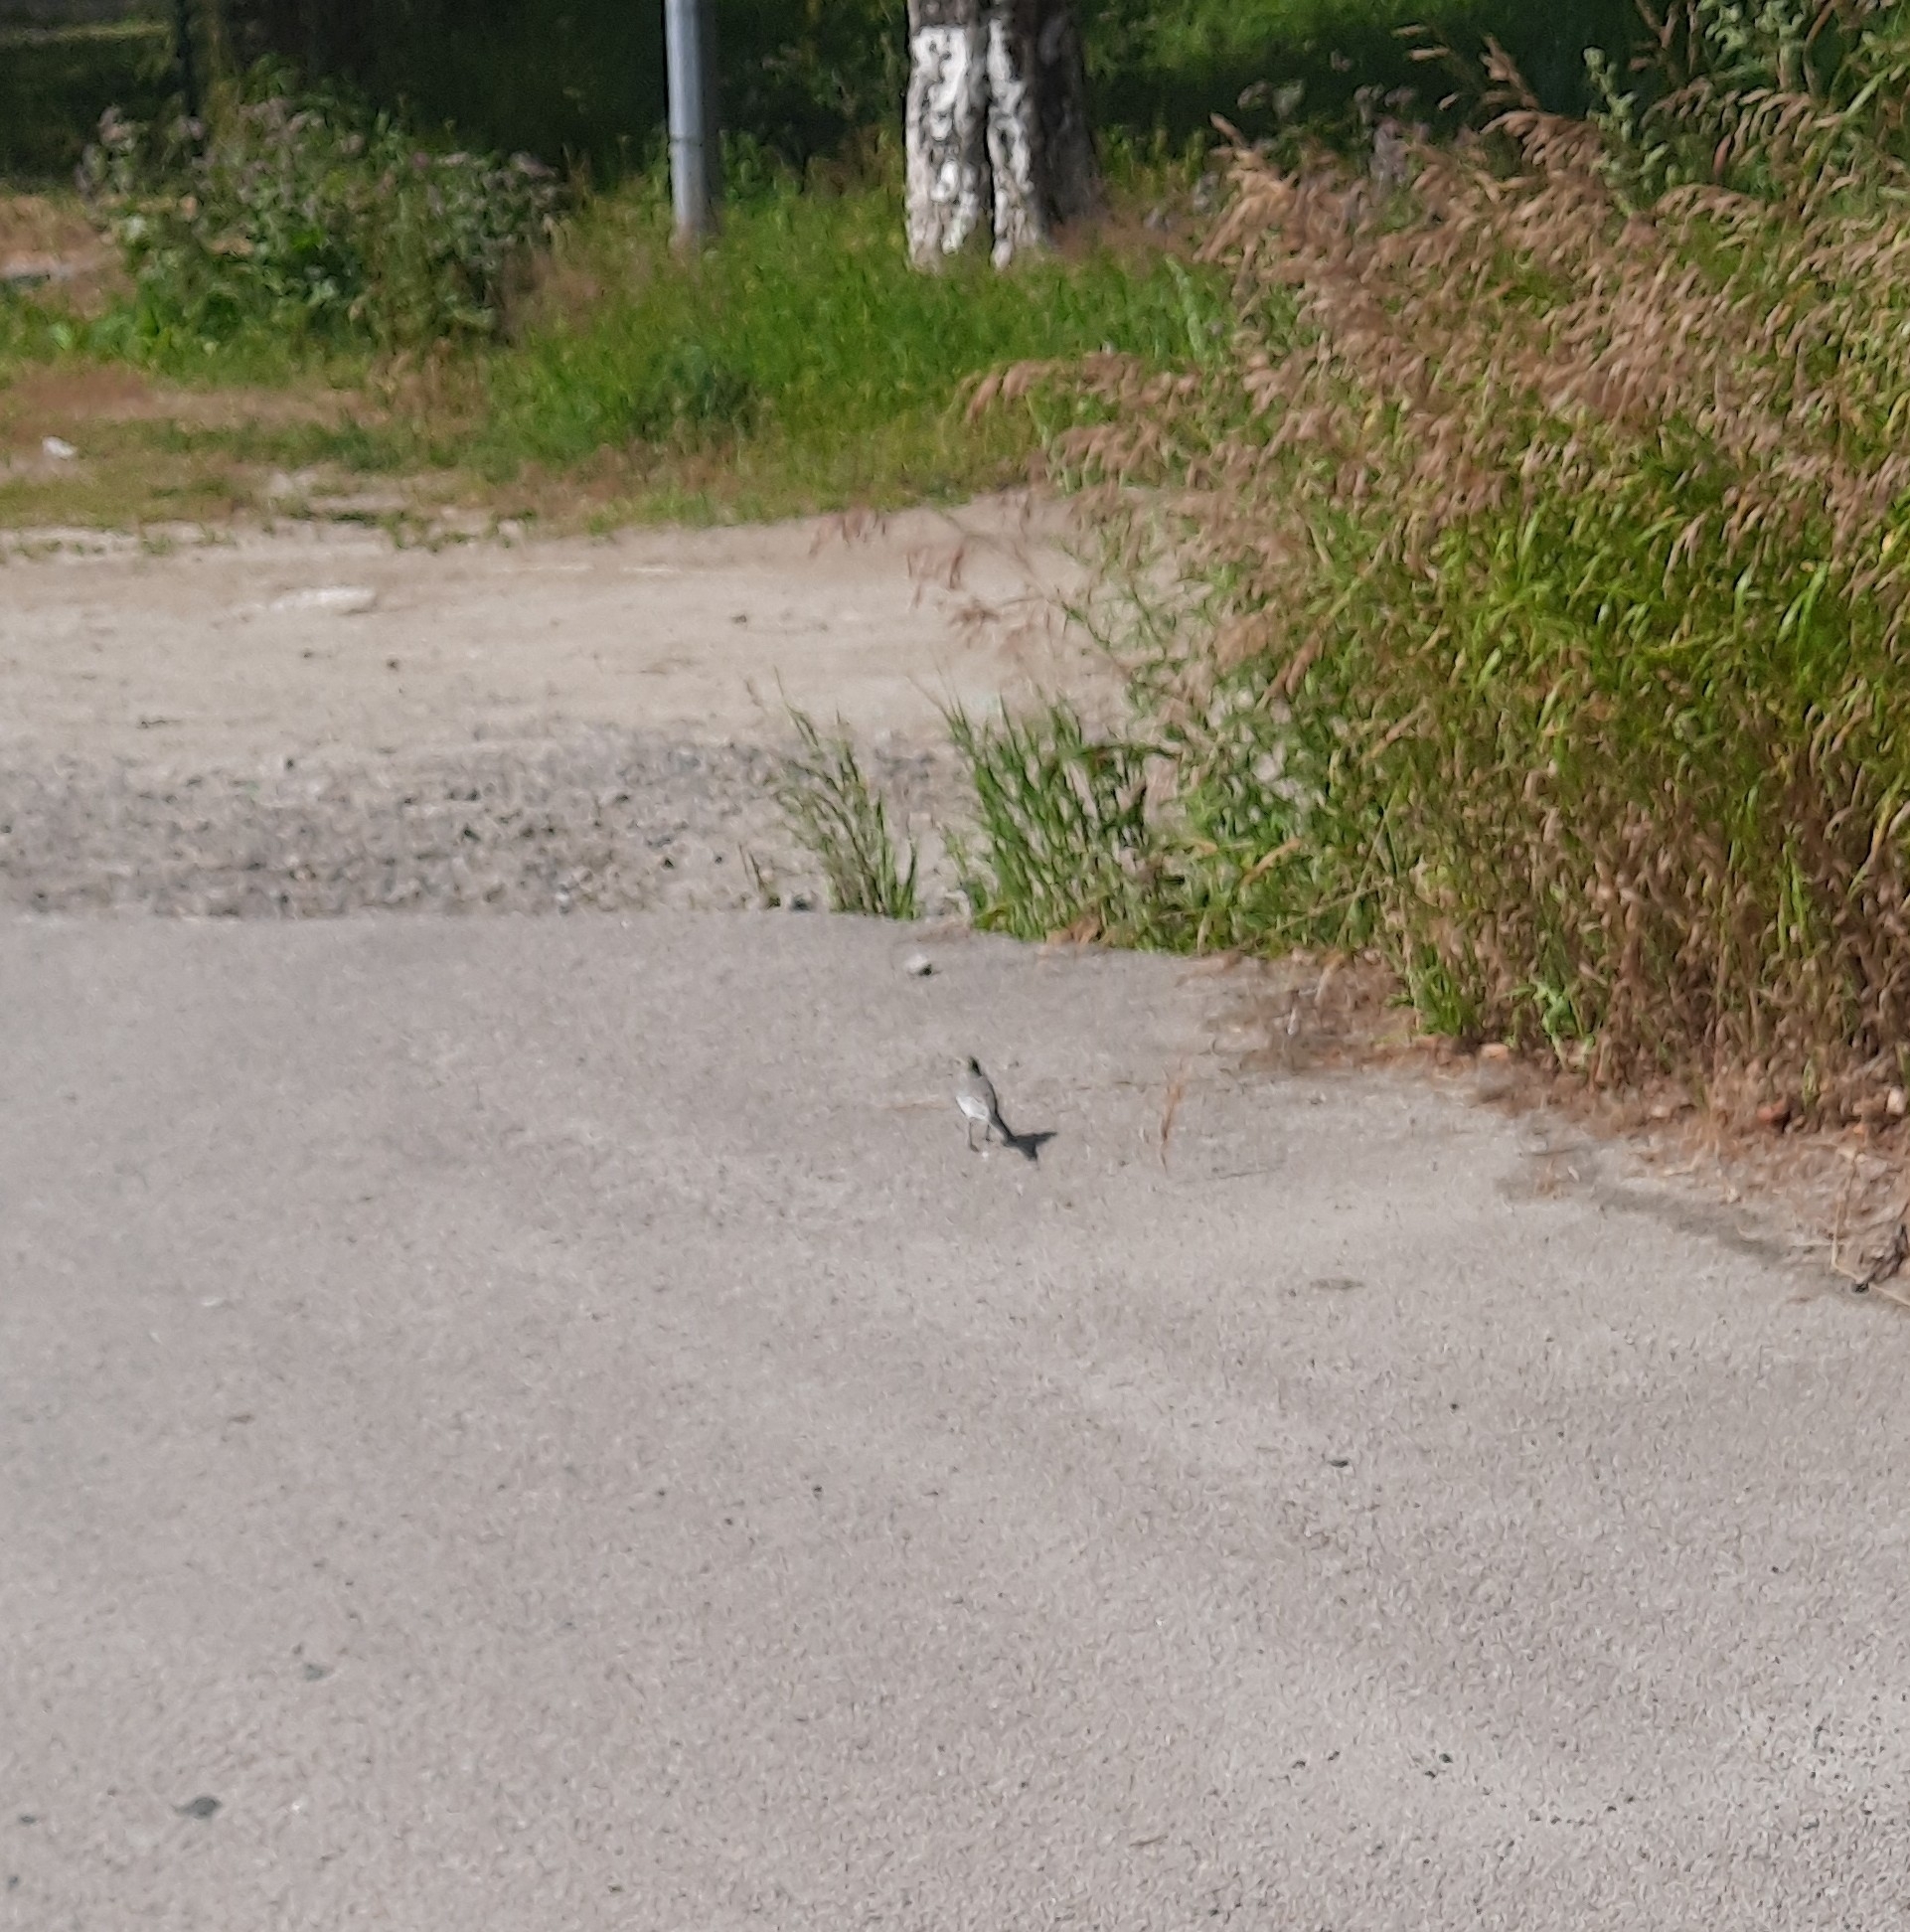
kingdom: Animalia
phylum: Chordata
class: Aves
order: Passeriformes
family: Motacillidae
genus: Motacilla
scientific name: Motacilla alba
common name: White wagtail
